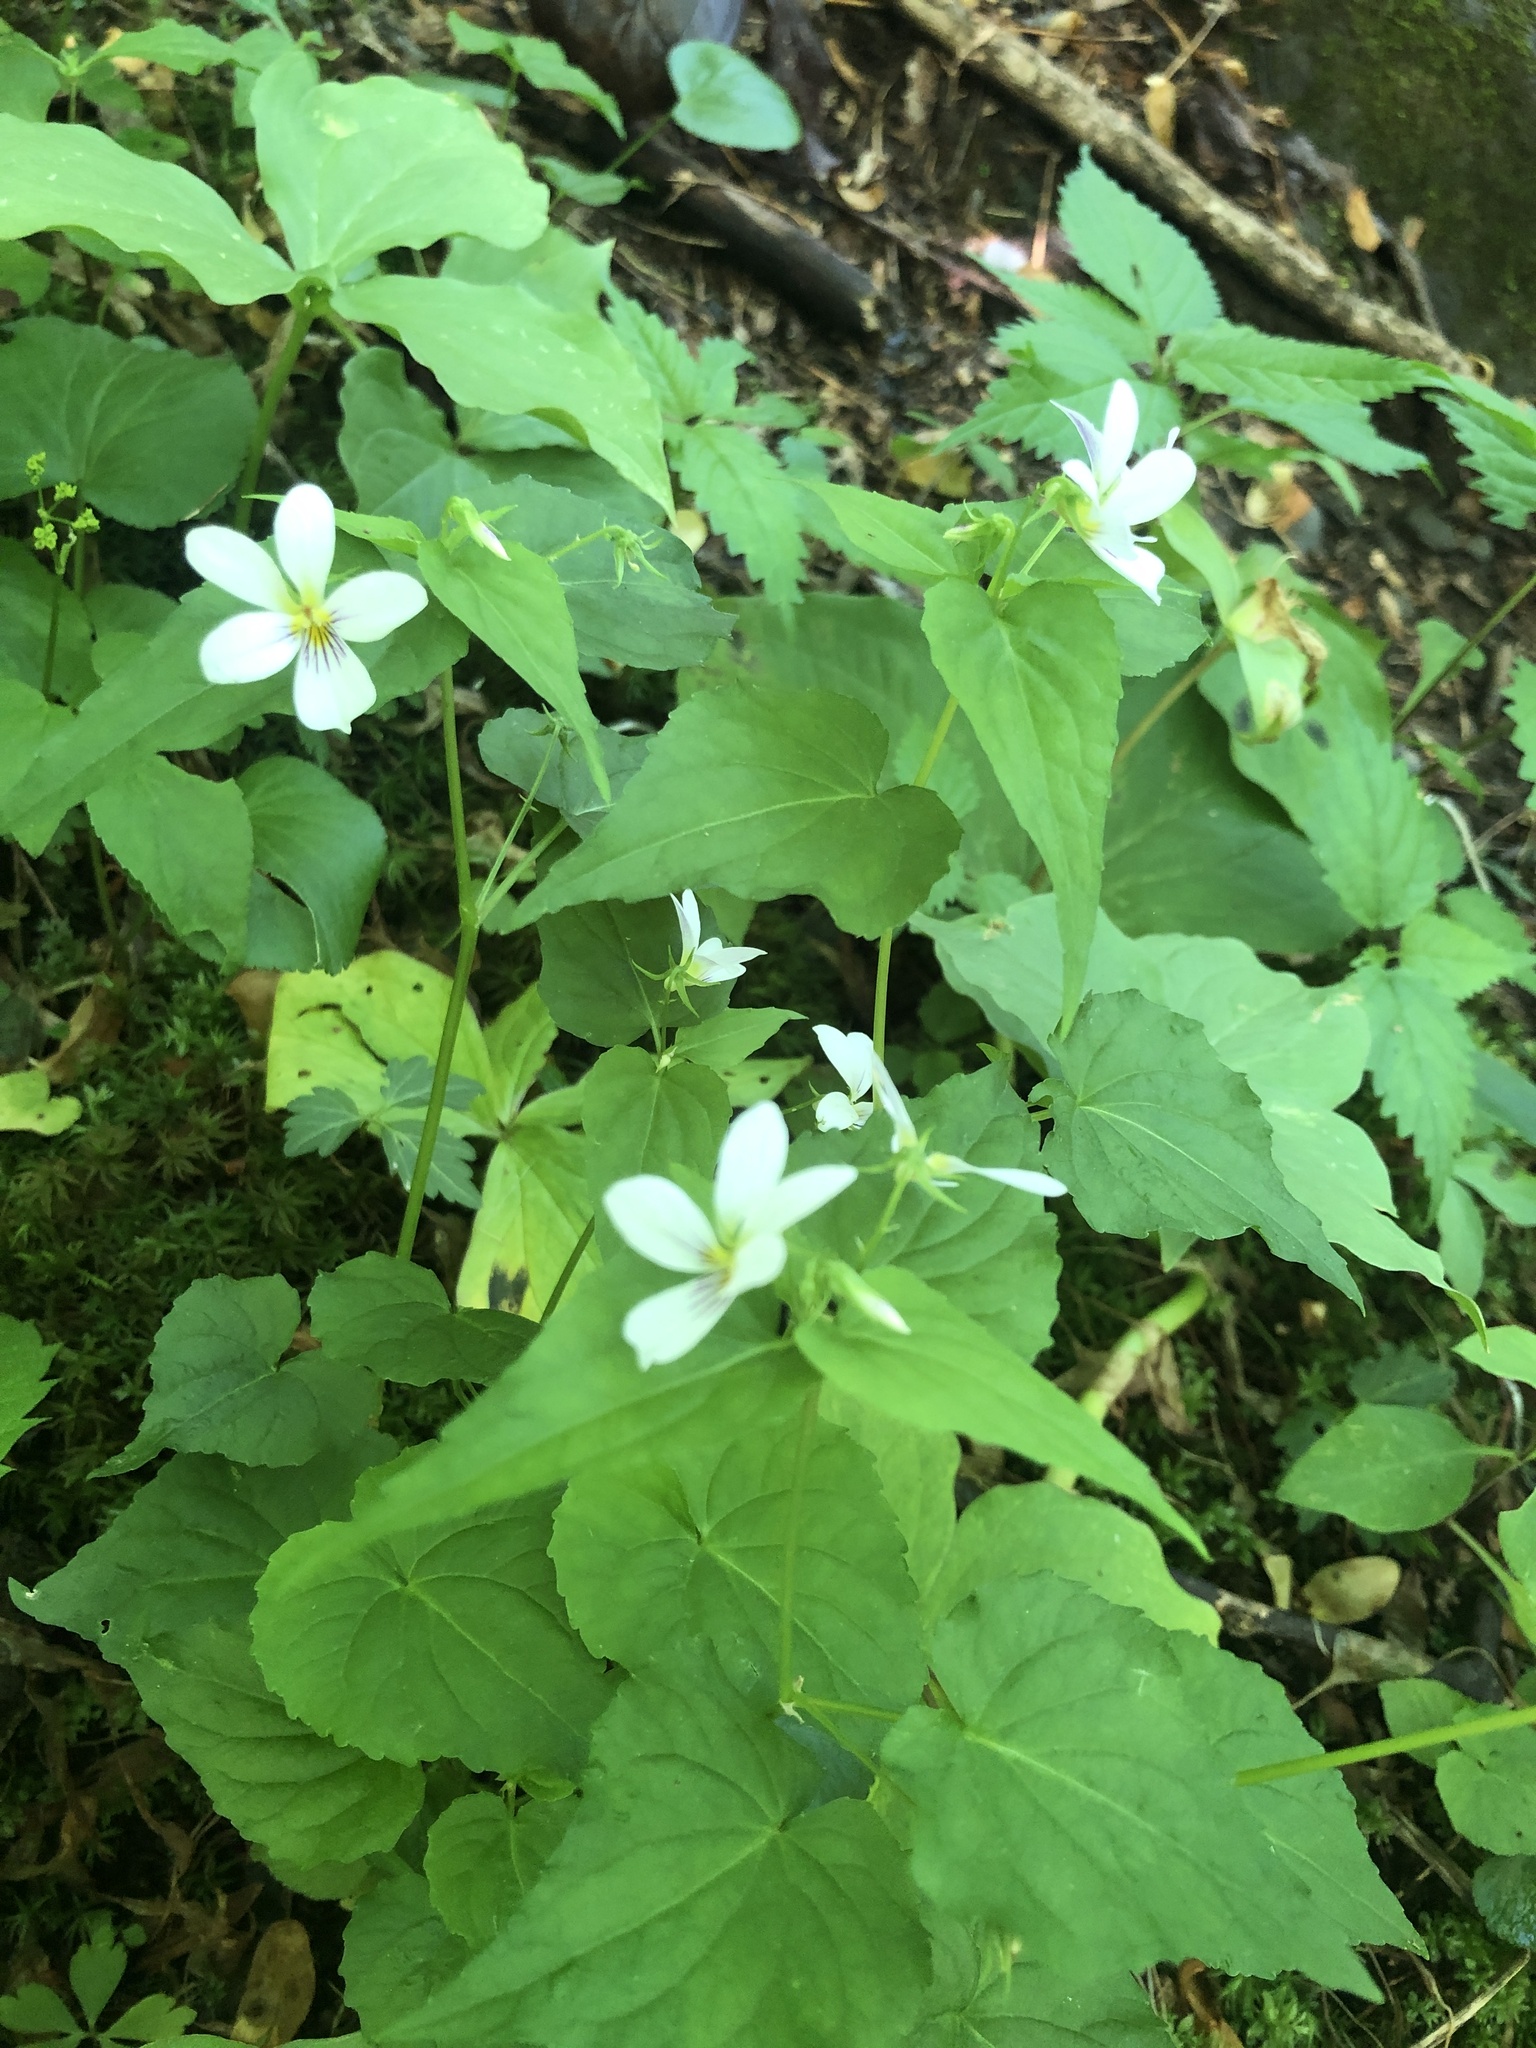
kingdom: Plantae
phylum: Tracheophyta
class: Magnoliopsida
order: Malpighiales
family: Violaceae
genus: Viola
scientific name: Viola canadensis
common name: Canada violet
